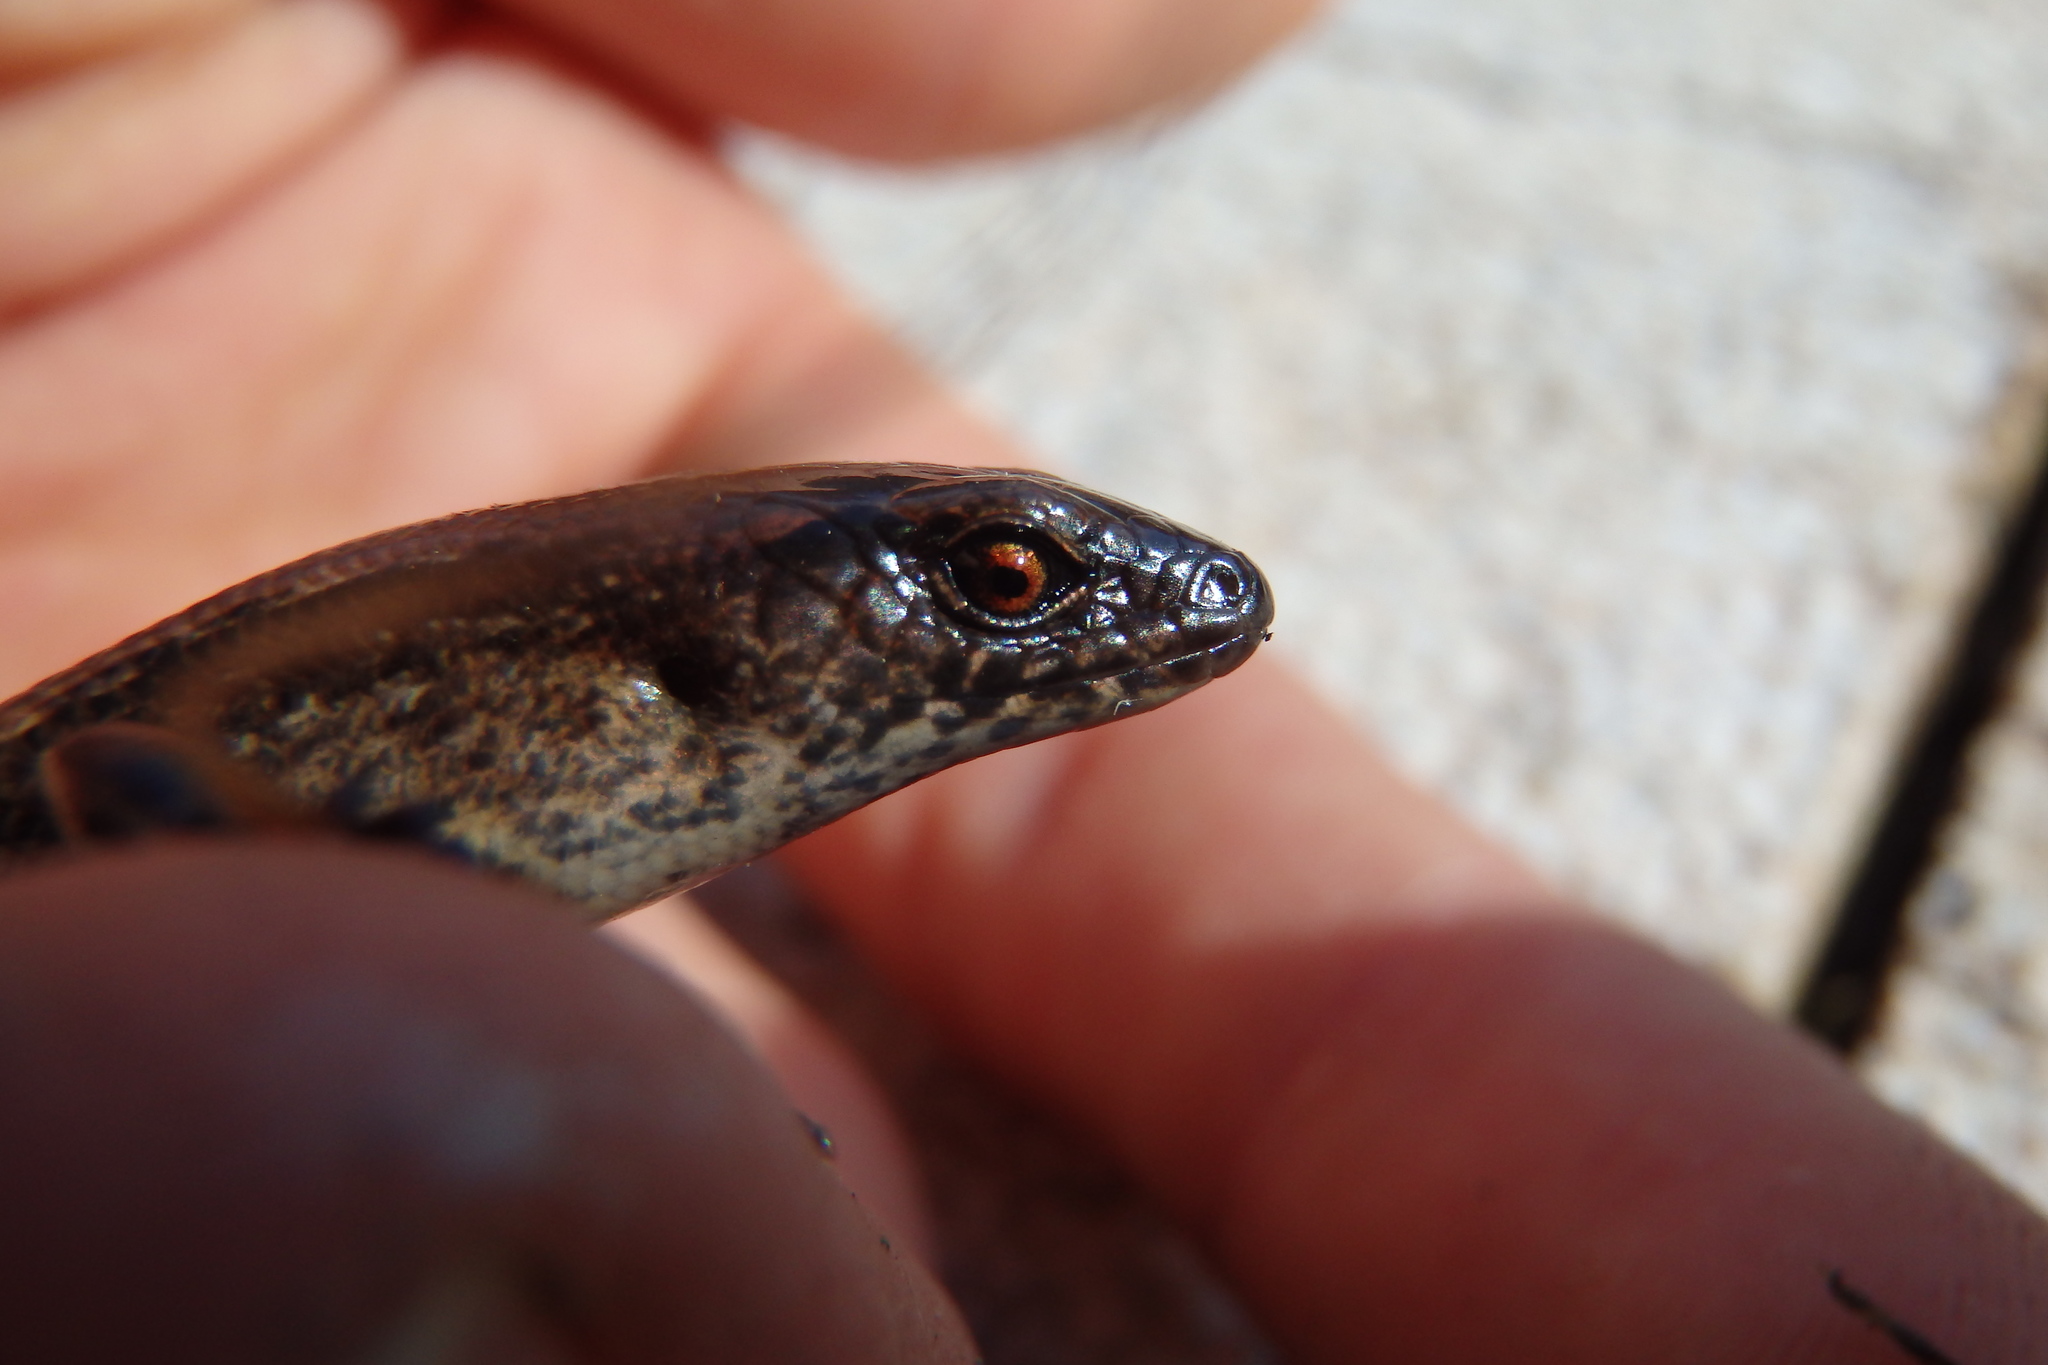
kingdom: Animalia
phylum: Chordata
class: Squamata
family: Scincidae
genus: Oligosoma
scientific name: Oligosoma aeneum
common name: Copper skink
